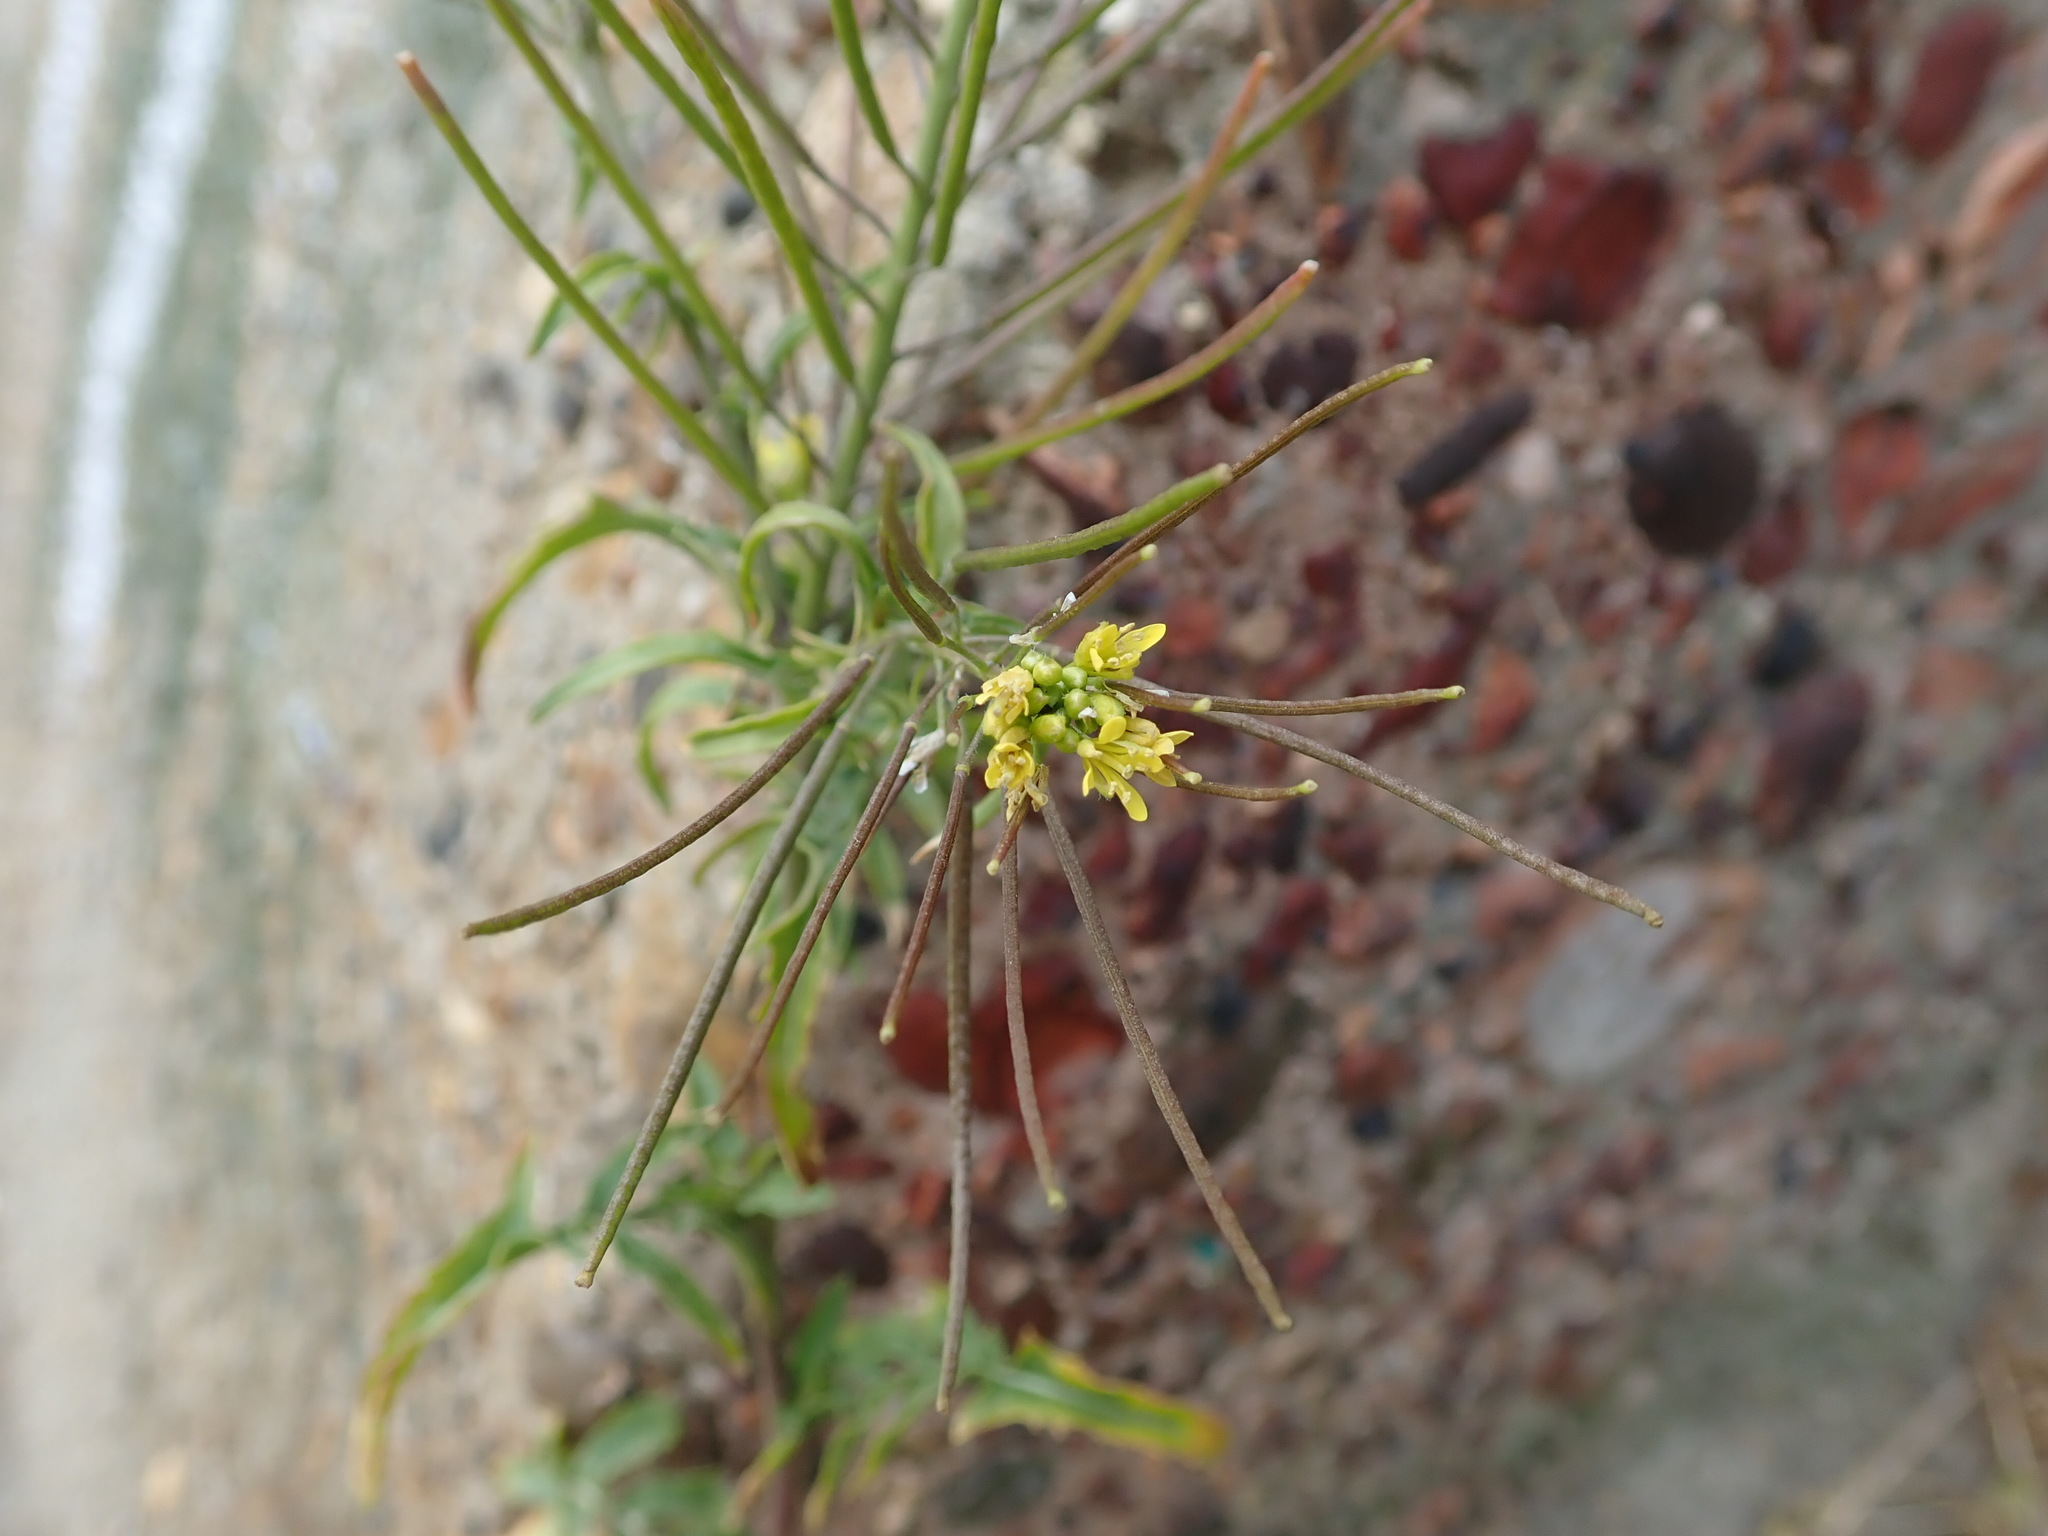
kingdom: Plantae
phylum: Tracheophyta
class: Magnoliopsida
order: Brassicales
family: Brassicaceae
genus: Sisymbrium
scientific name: Sisymbrium irio
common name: London rocket
